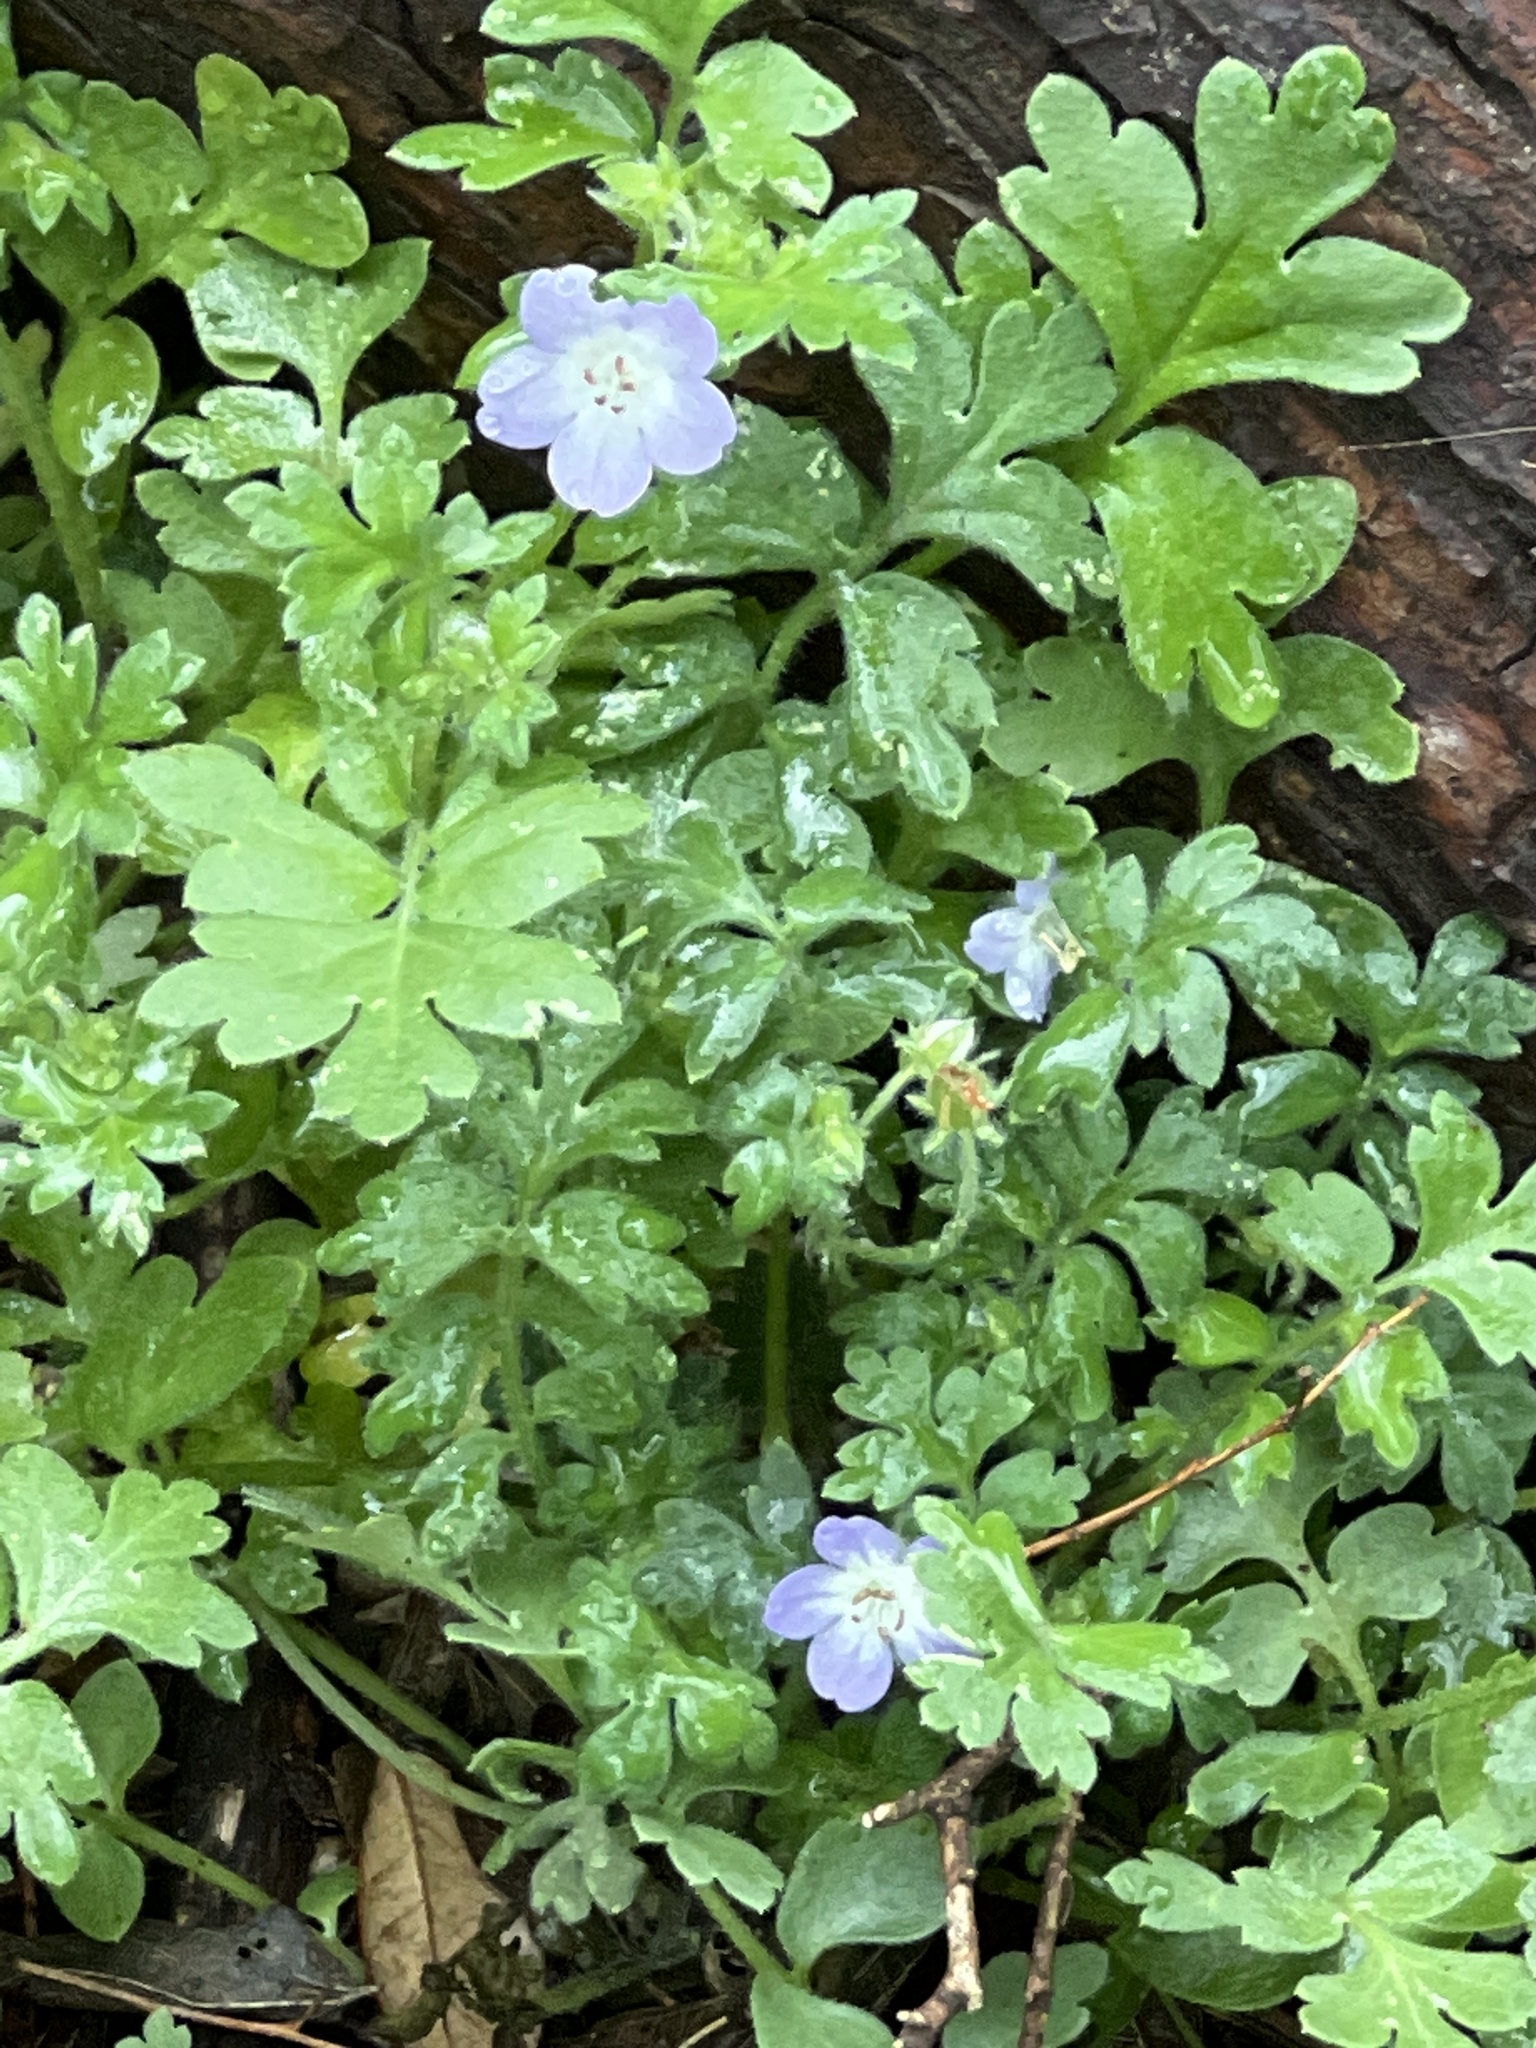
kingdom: Plantae
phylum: Tracheophyta
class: Magnoliopsida
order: Boraginales
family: Hydrophyllaceae
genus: Nemophila
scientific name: Nemophila phacelioides
